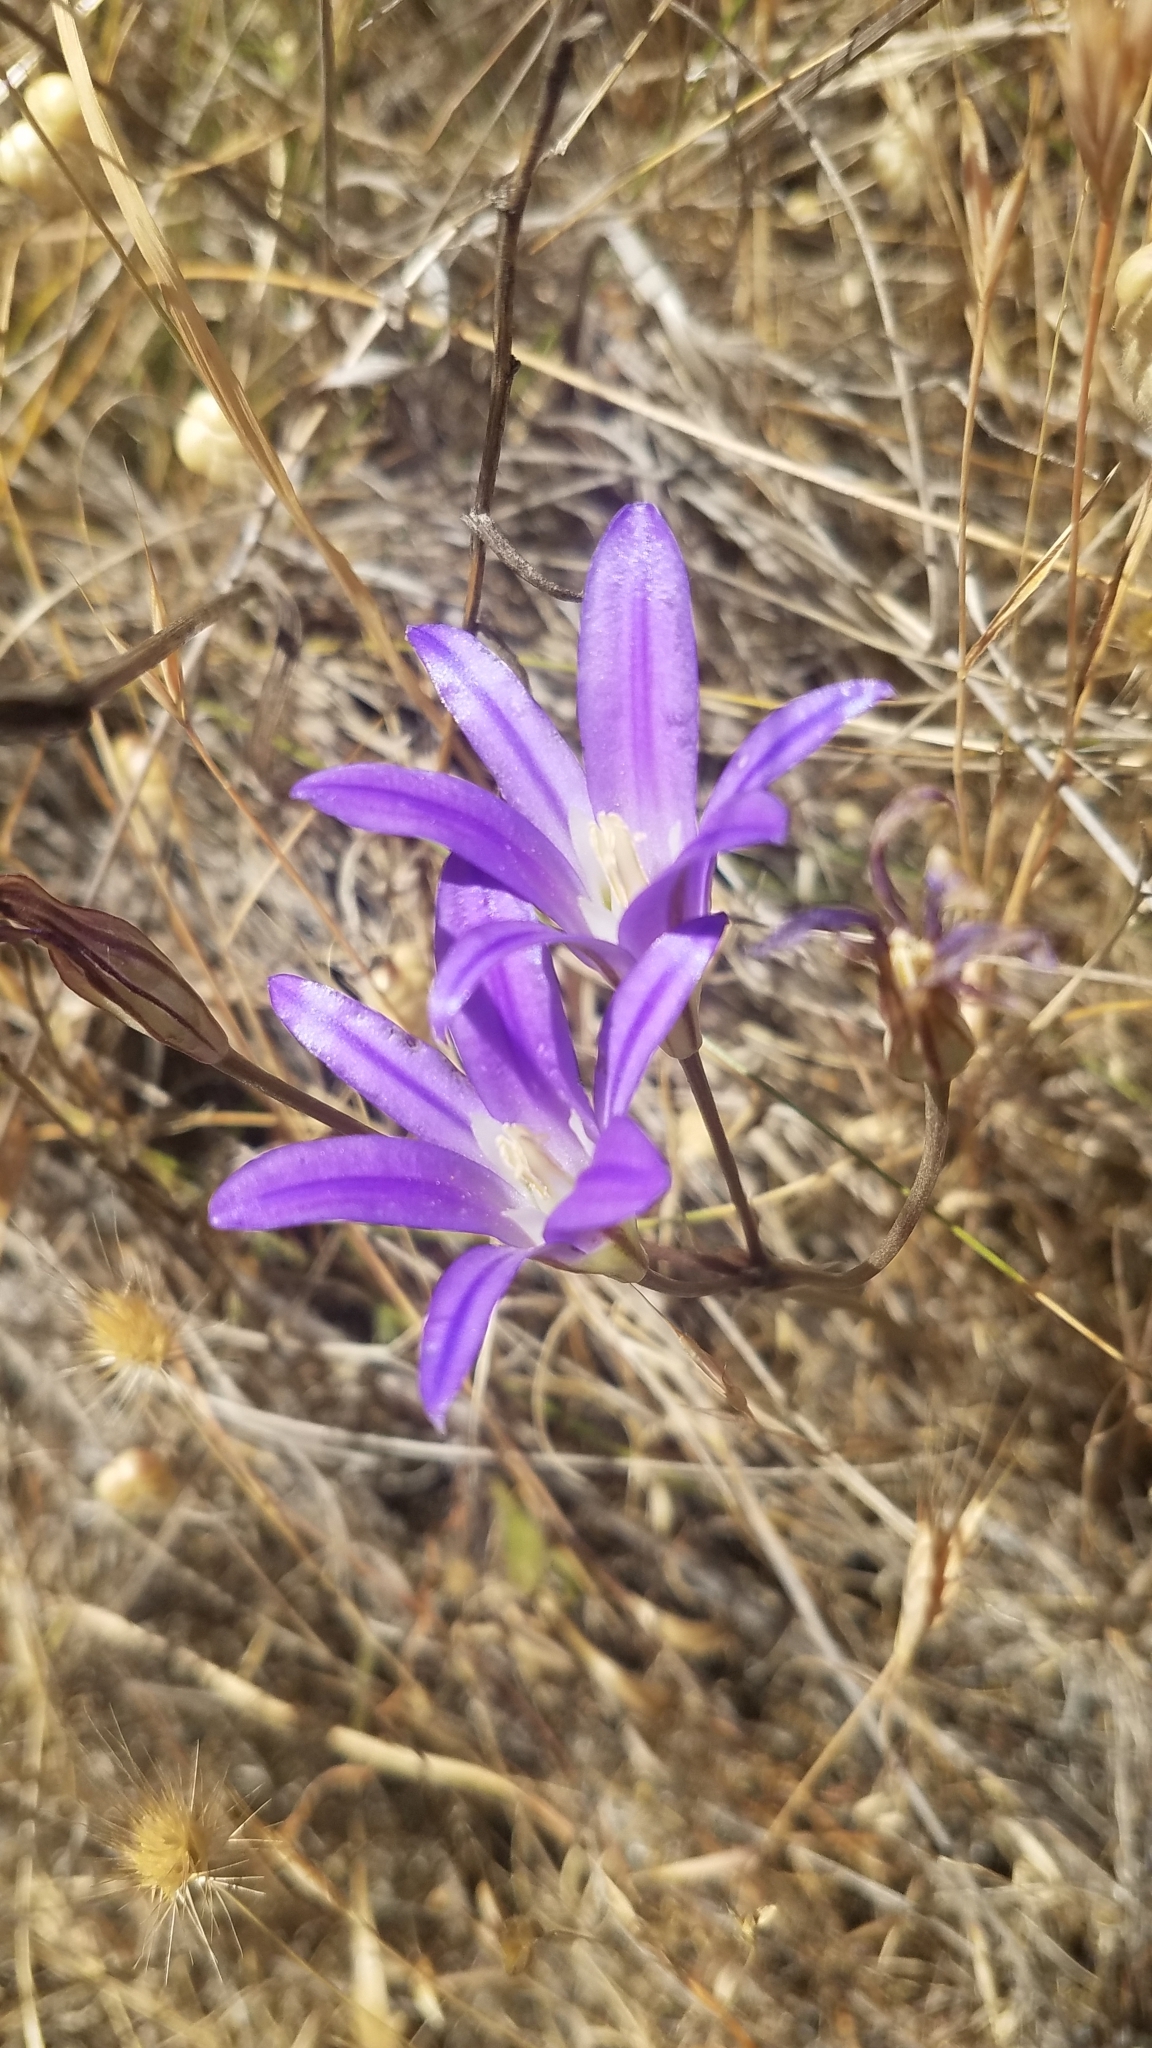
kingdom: Plantae
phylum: Tracheophyta
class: Liliopsida
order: Asparagales
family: Asparagaceae
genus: Brodiaea
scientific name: Brodiaea elegans
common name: Elegant cluster-lily
